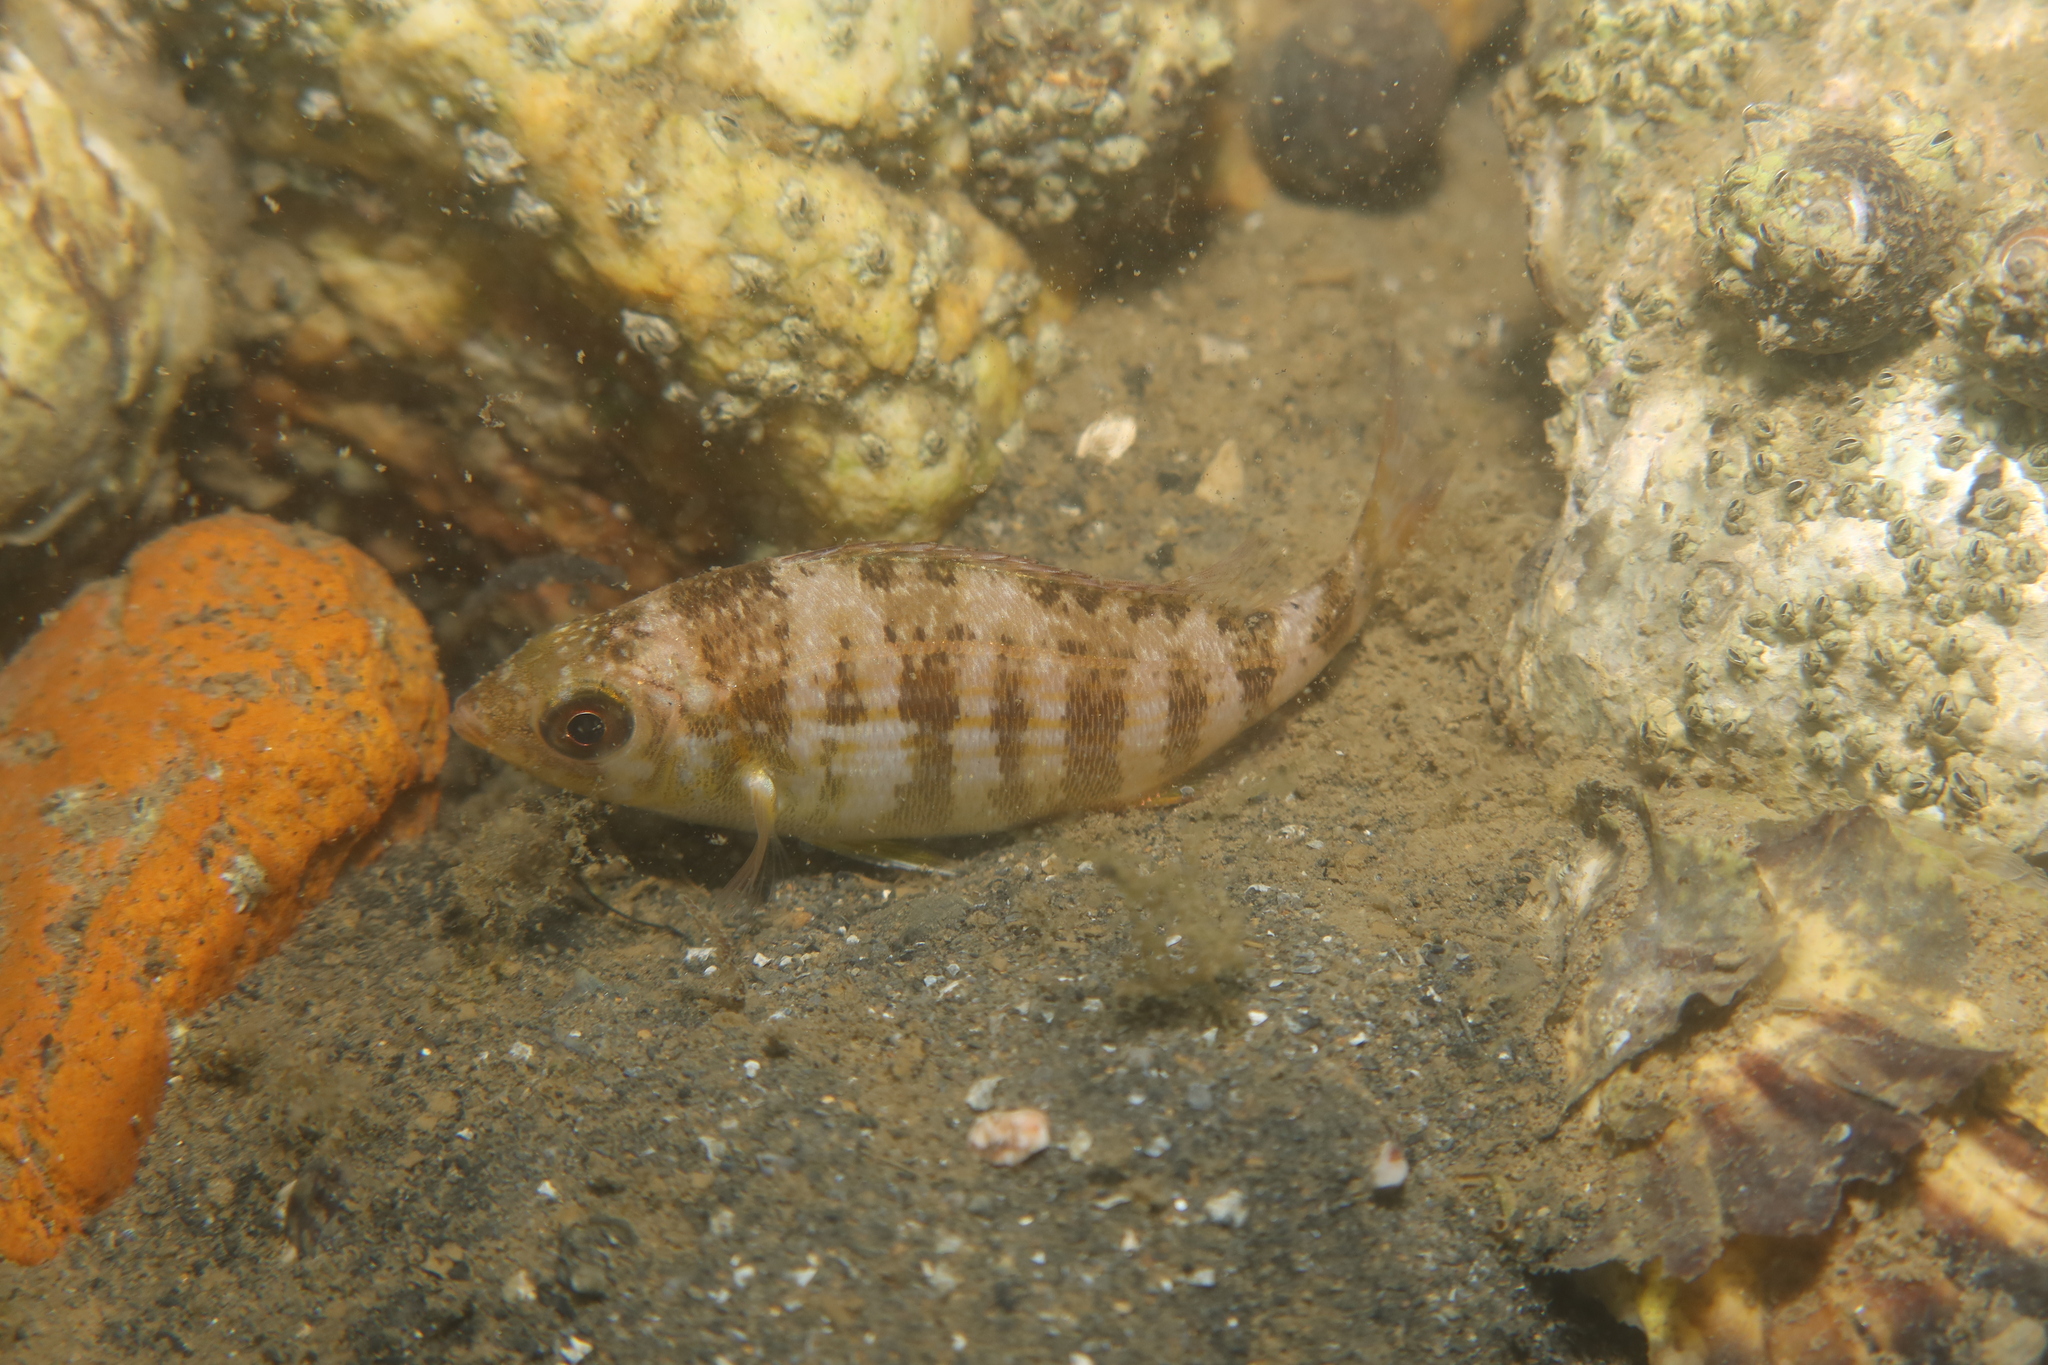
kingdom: Animalia
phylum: Chordata
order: Perciformes
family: Sparidae
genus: Spondyliosoma
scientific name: Spondyliosoma cantharus
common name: Black seabream
